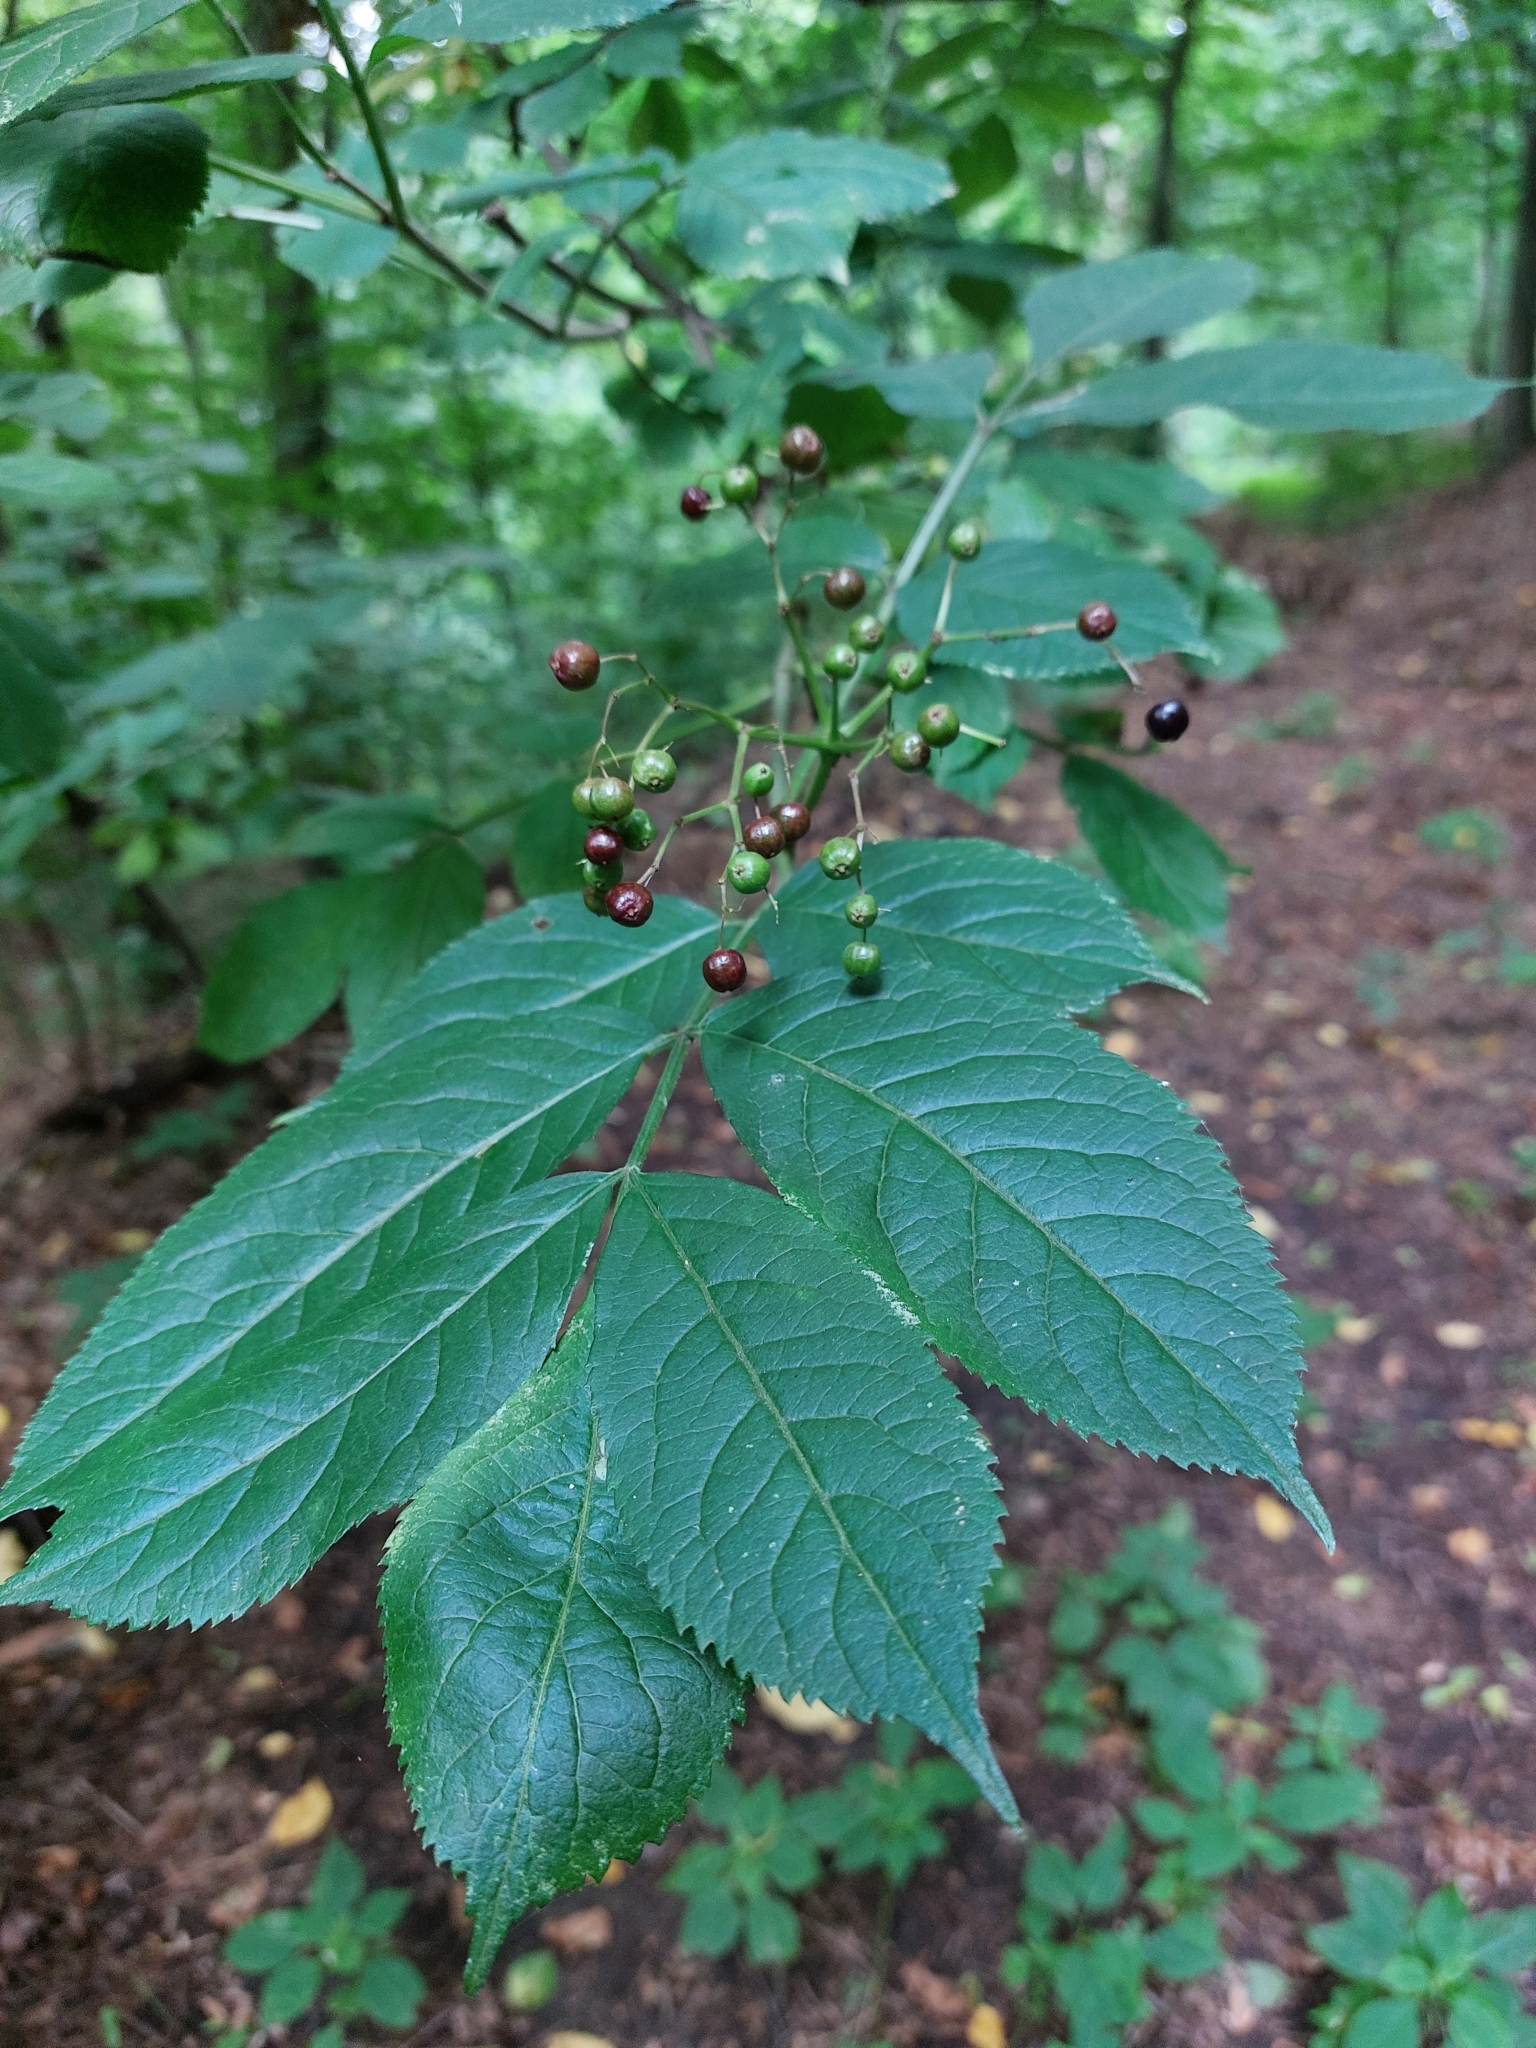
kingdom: Plantae
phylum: Tracheophyta
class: Magnoliopsida
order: Dipsacales
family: Viburnaceae
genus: Sambucus
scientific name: Sambucus nigra
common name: Elder
